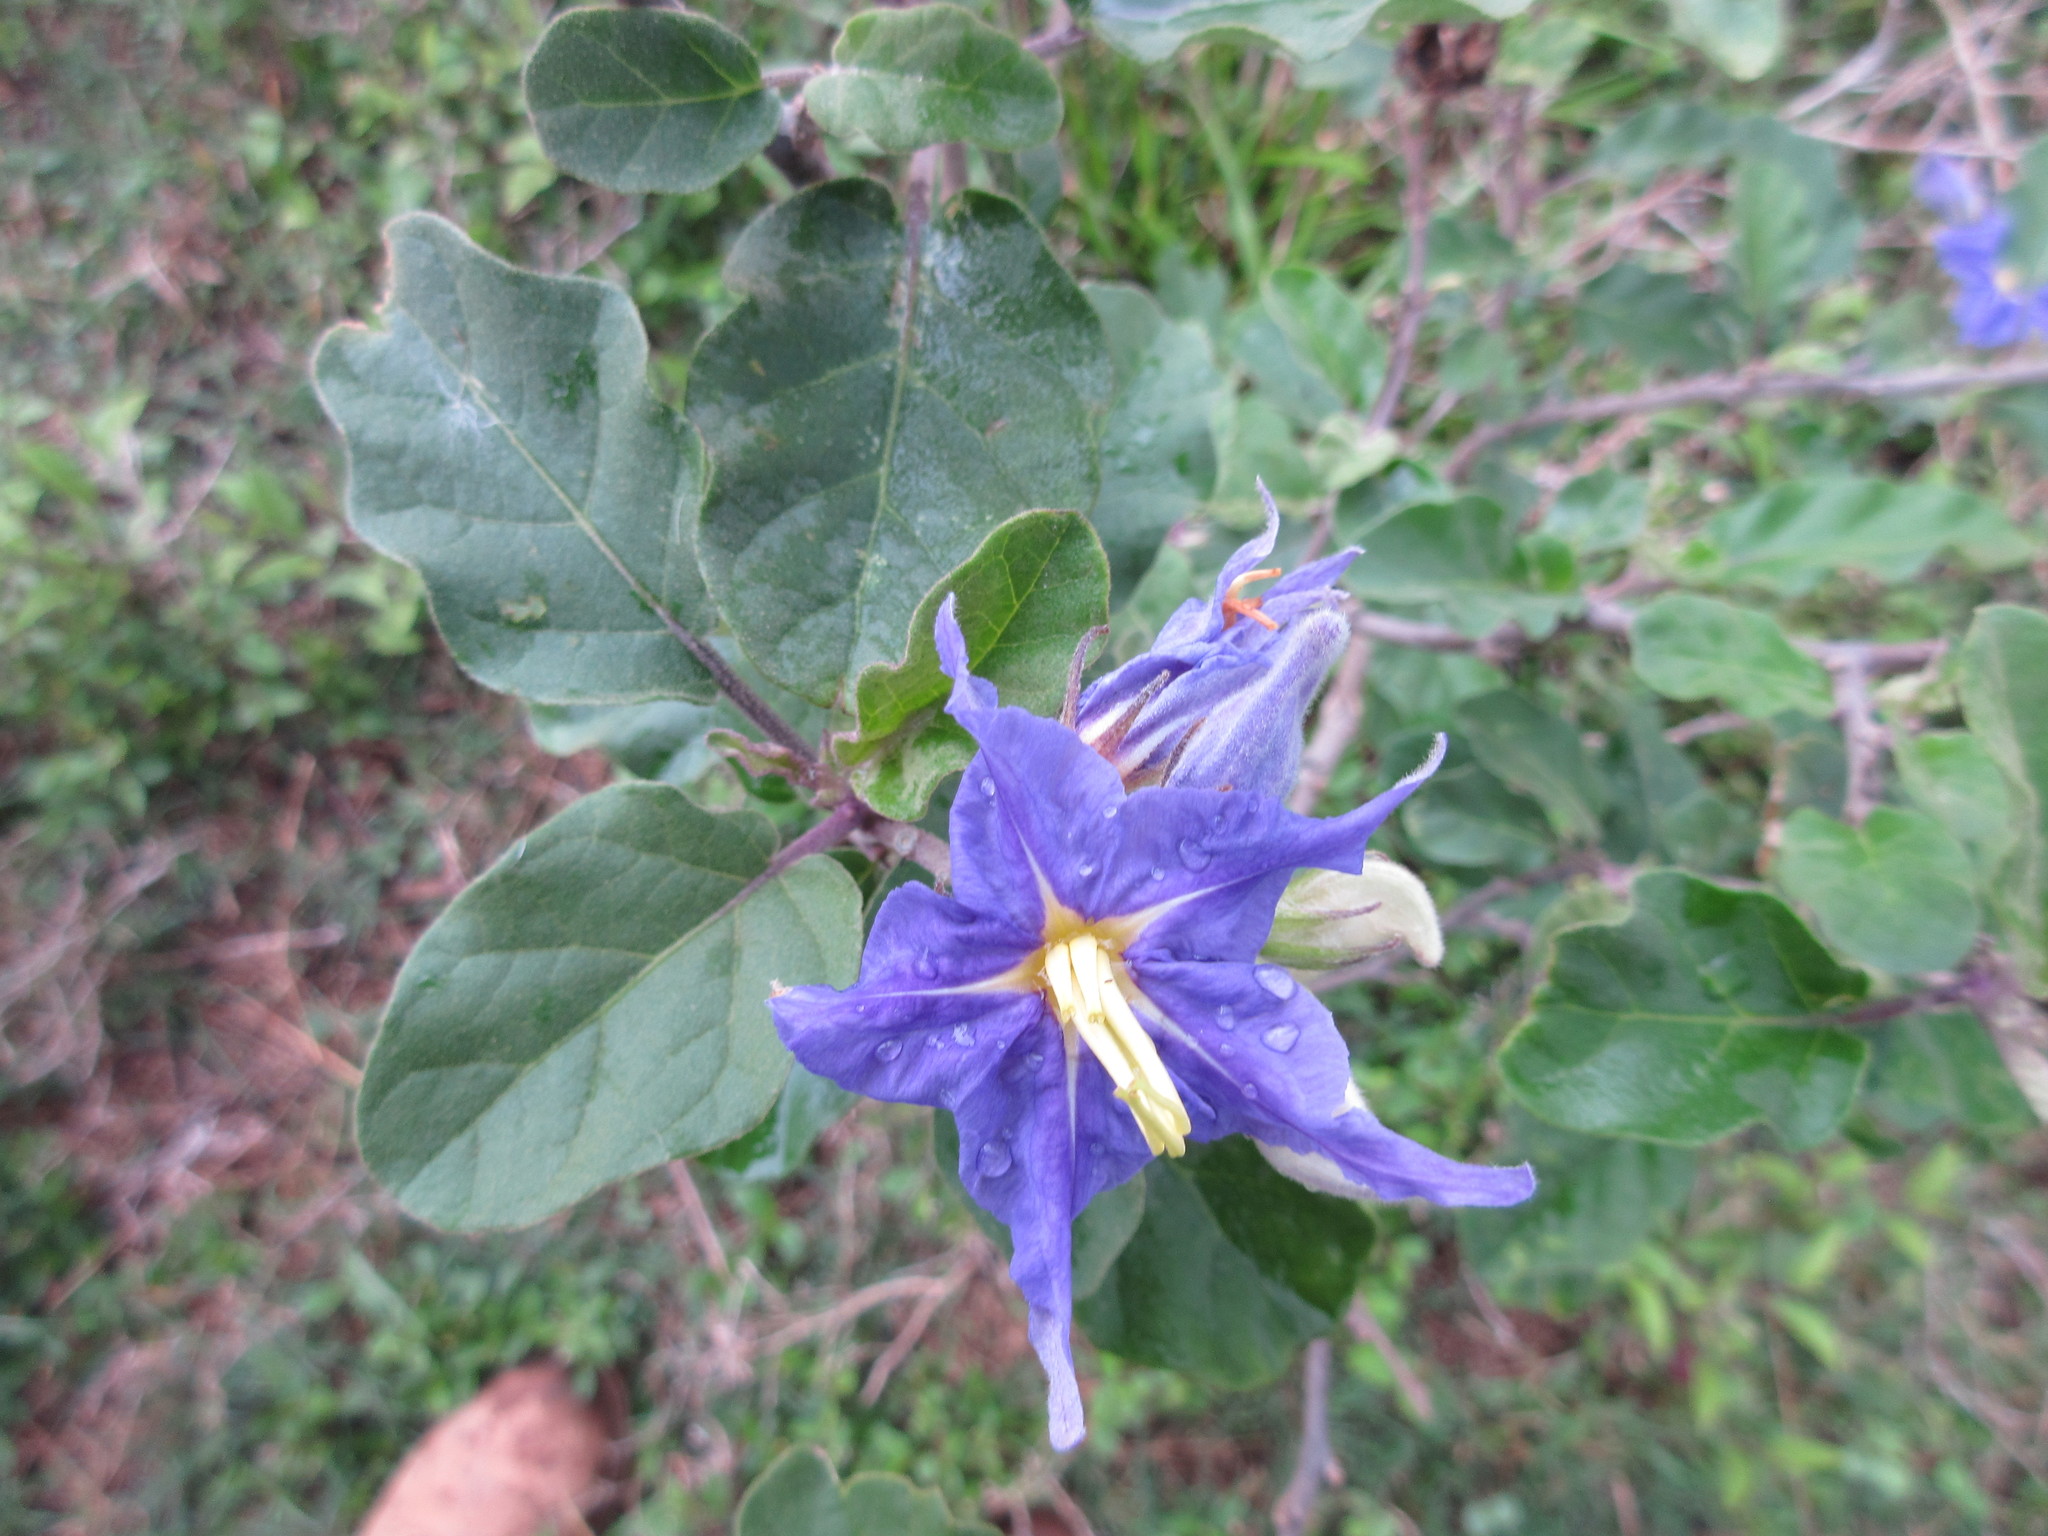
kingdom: Plantae
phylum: Tracheophyta
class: Magnoliopsida
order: Solanales
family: Solanaceae
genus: Solanum
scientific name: Solanum houstonii
